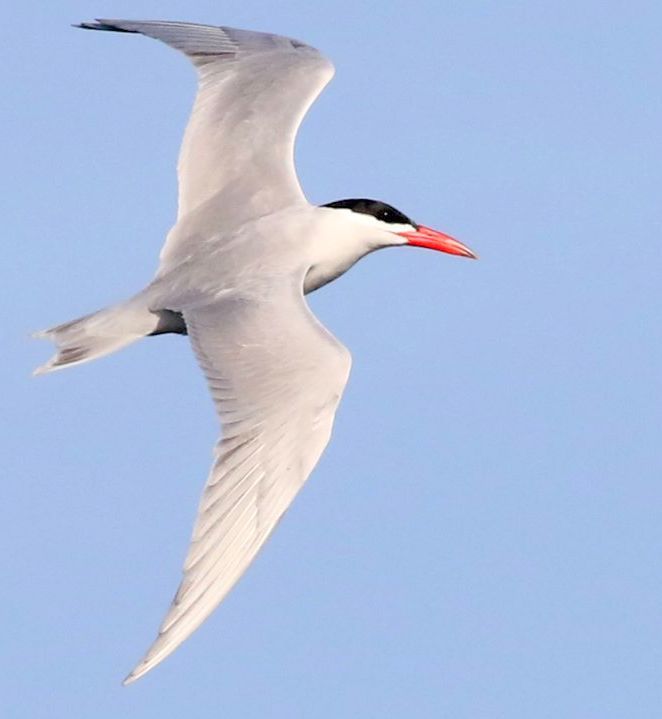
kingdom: Animalia
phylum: Chordata
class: Aves
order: Charadriiformes
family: Laridae
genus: Hydroprogne
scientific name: Hydroprogne caspia
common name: Caspian tern
